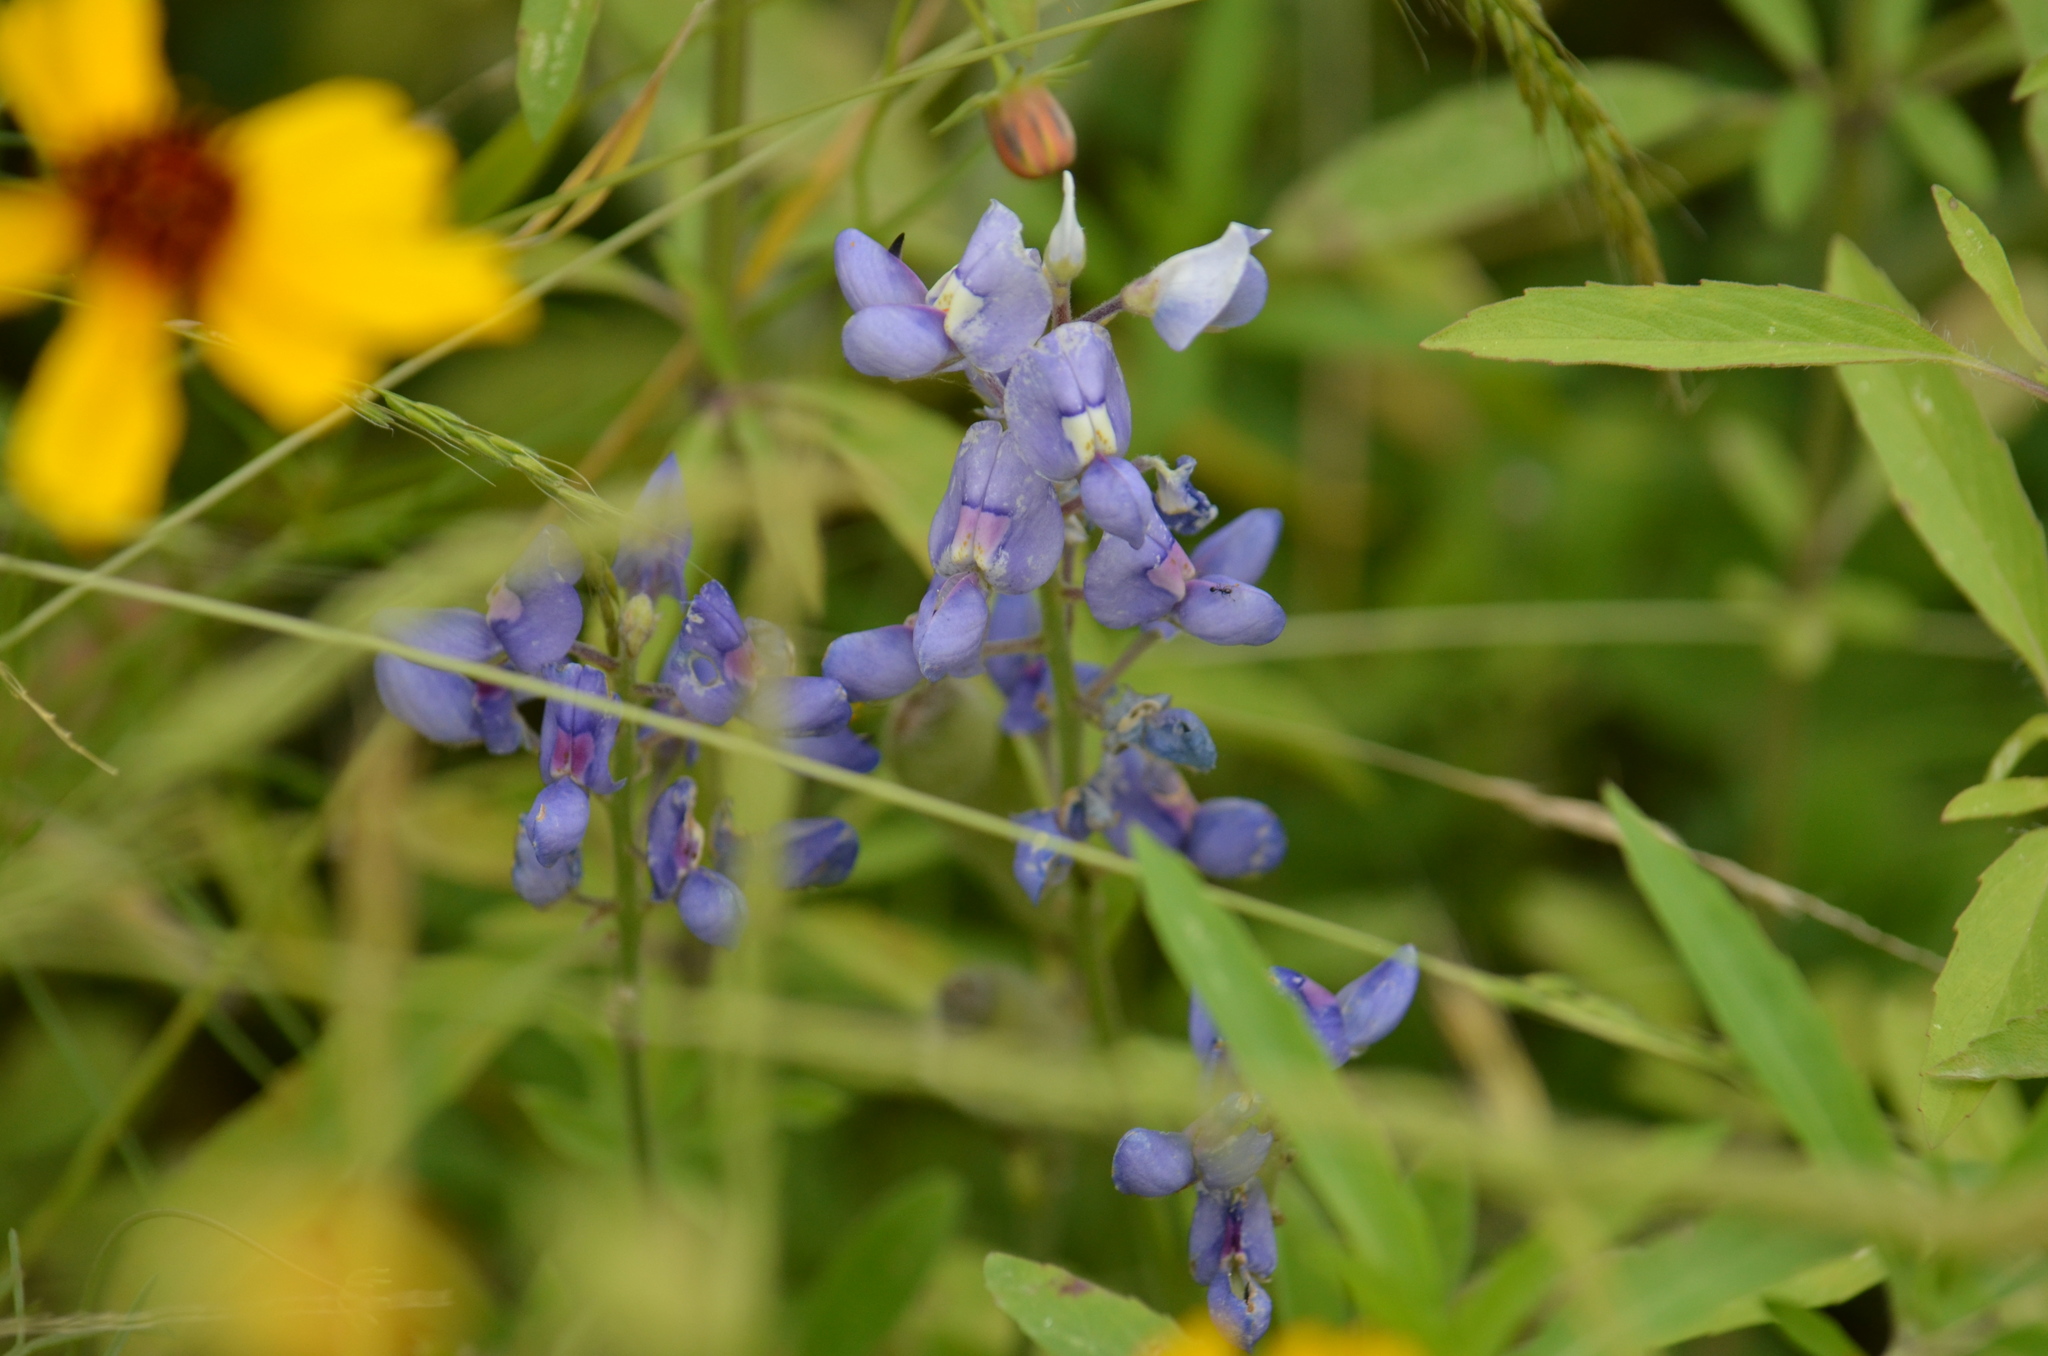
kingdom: Plantae
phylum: Tracheophyta
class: Magnoliopsida
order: Fabales
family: Fabaceae
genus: Lupinus
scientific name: Lupinus texensis
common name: Texas bluebonnet
